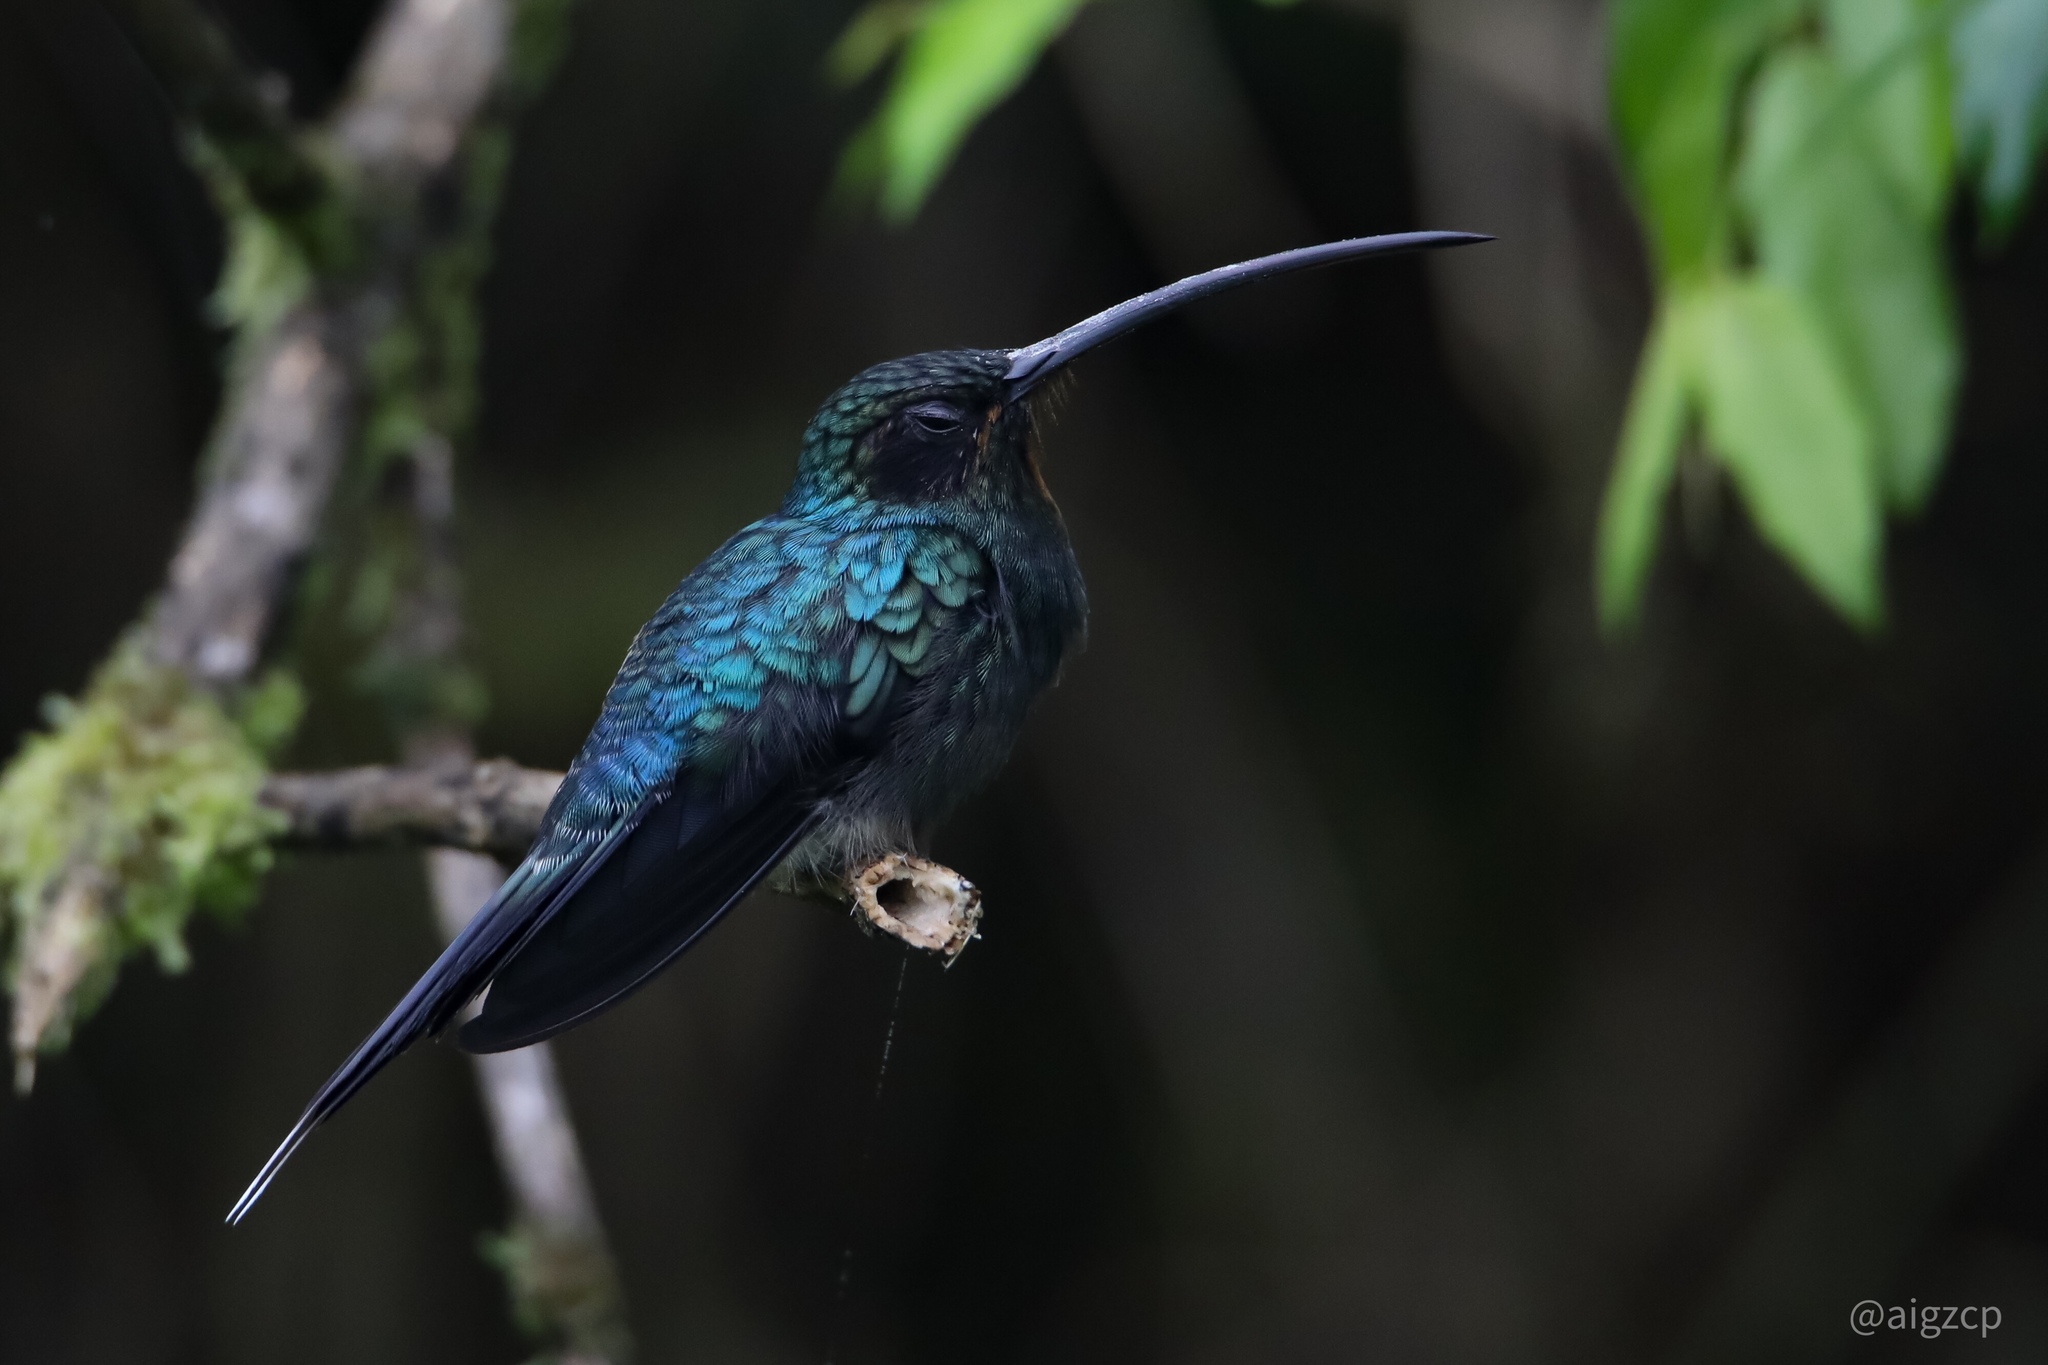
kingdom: Animalia
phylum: Chordata
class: Aves
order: Apodiformes
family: Trochilidae
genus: Phaethornis
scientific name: Phaethornis guy
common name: Green hermit
